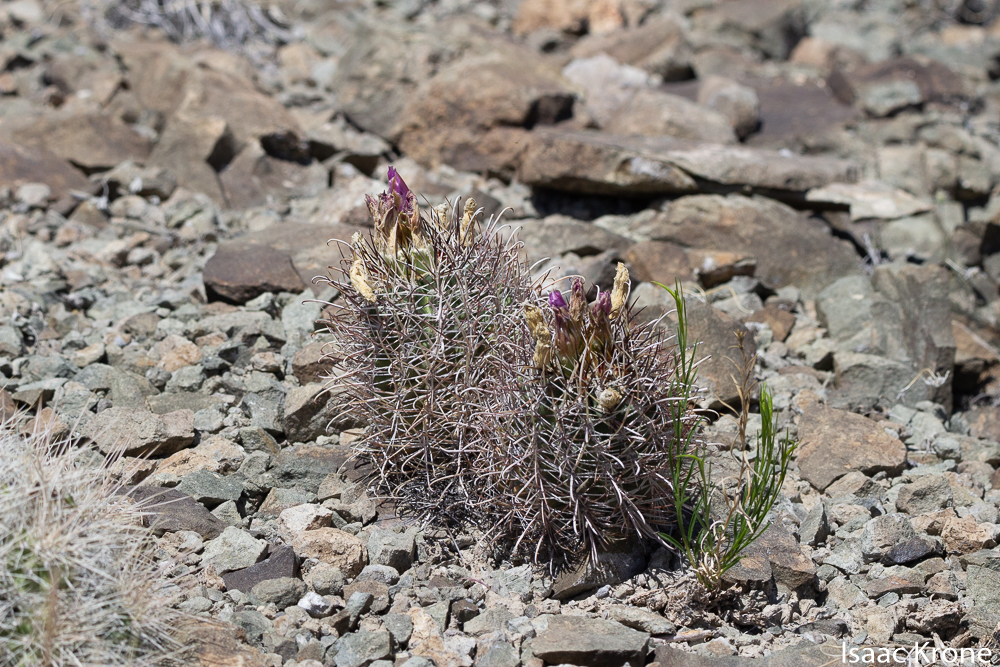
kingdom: Plantae
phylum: Tracheophyta
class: Magnoliopsida
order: Caryophyllales
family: Cactaceae
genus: Sclerocactus
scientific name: Sclerocactus parviflorus
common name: Small-flower fishhook cactus
